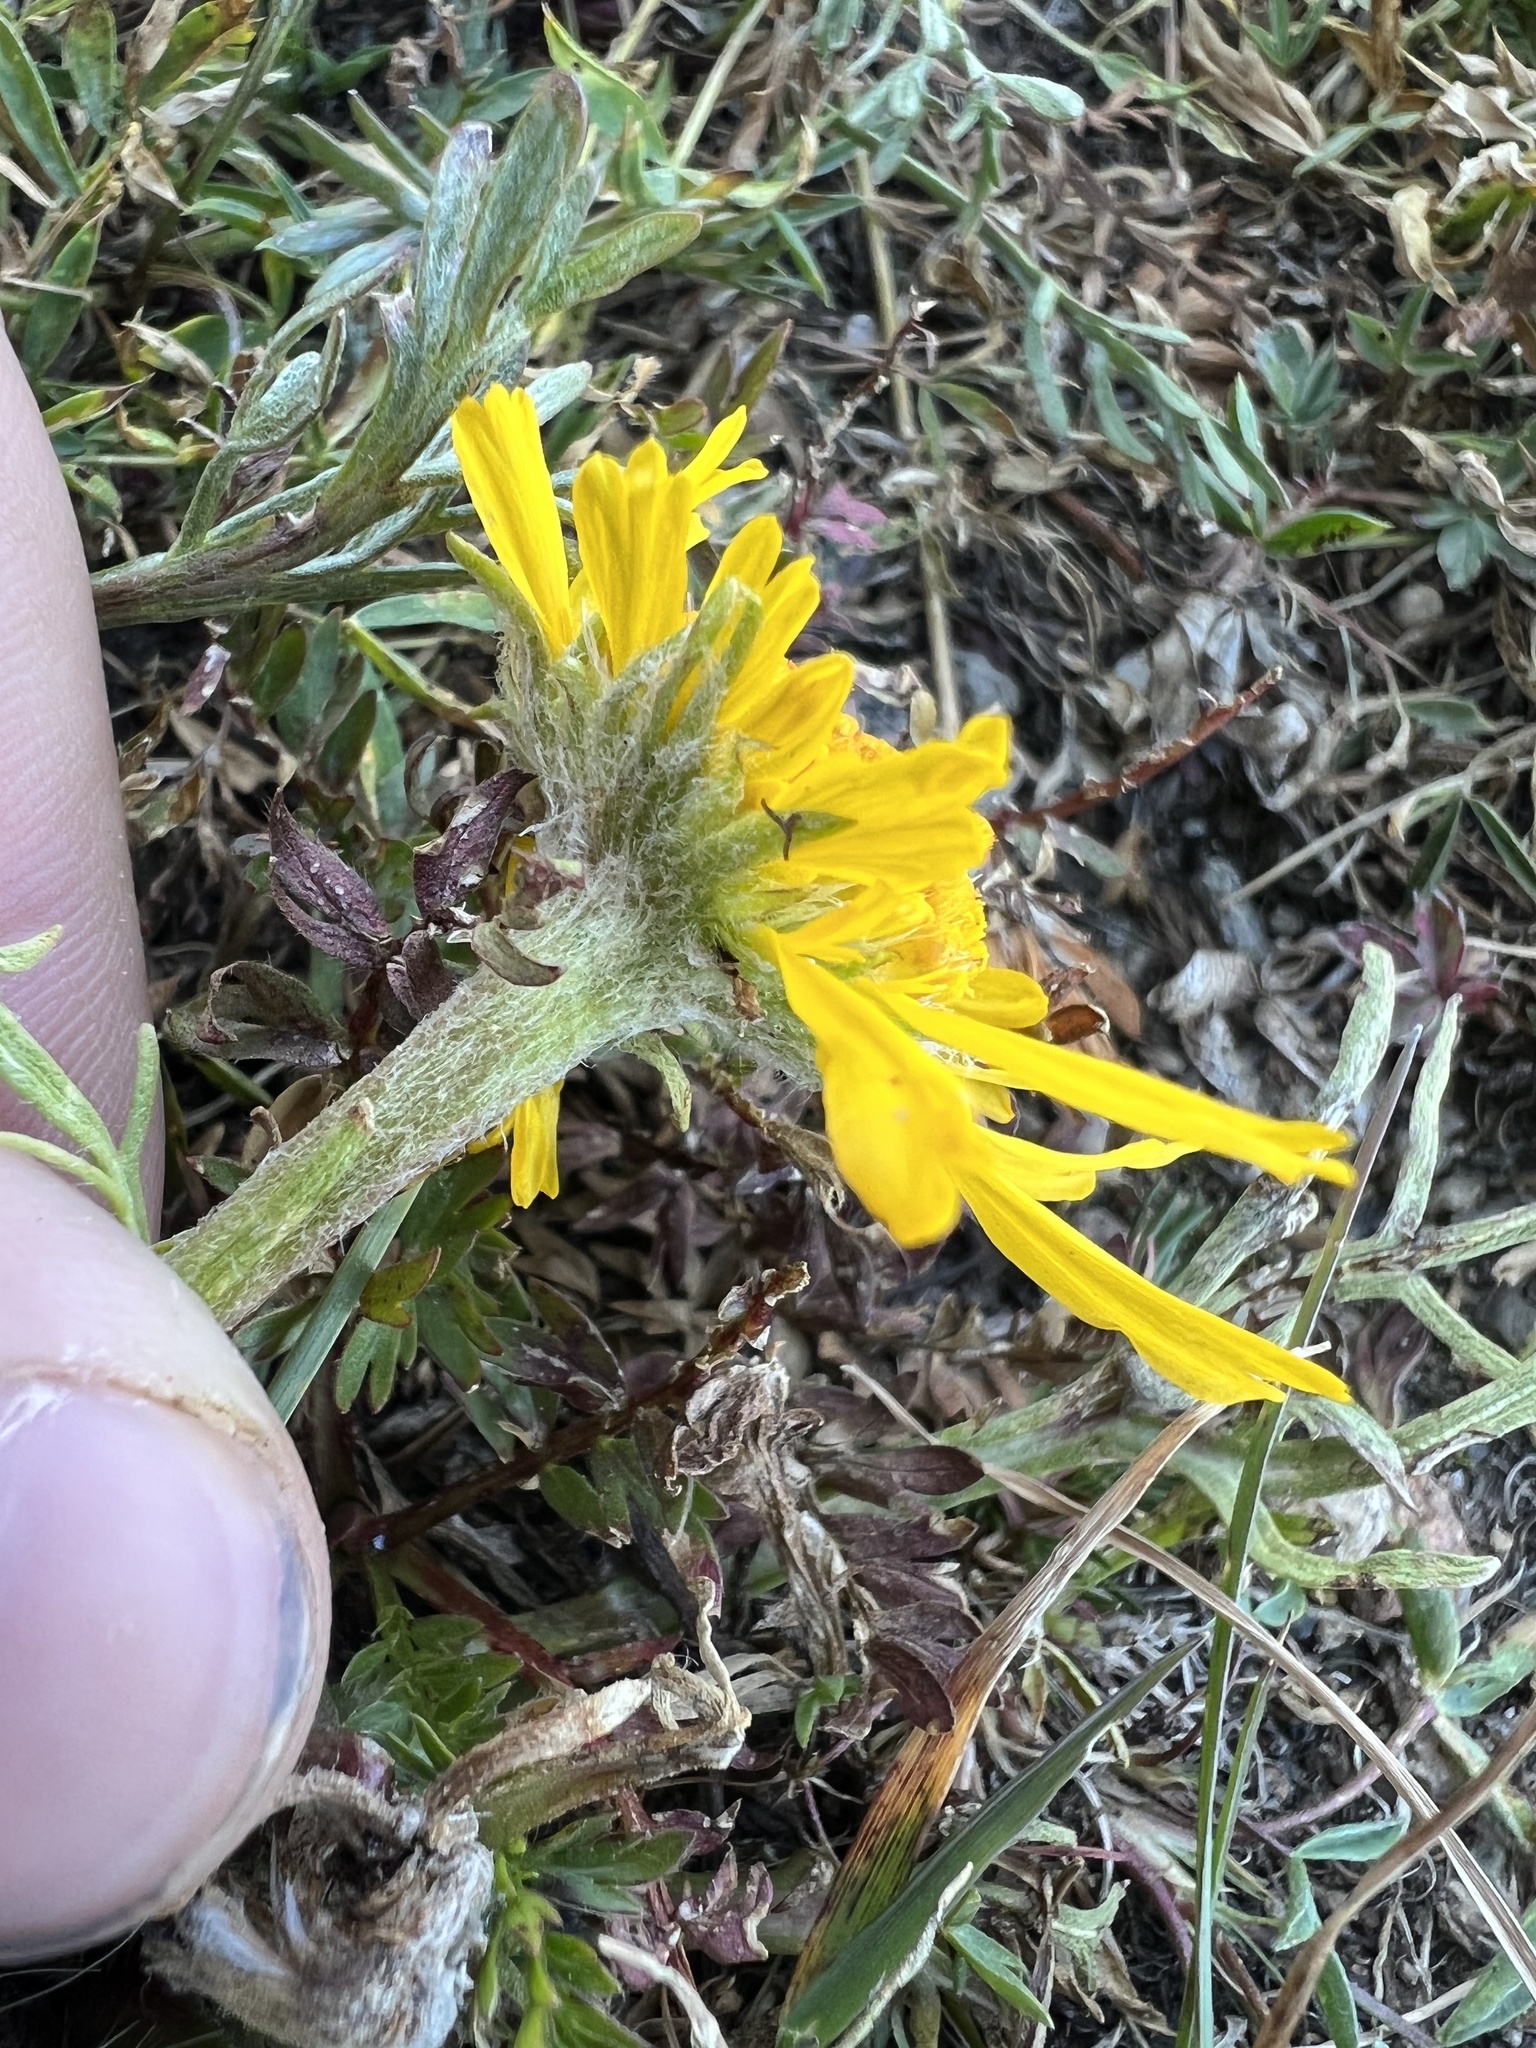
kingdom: Plantae
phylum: Tracheophyta
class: Magnoliopsida
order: Asterales
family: Asteraceae
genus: Hymenoxys
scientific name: Hymenoxys grandiflora
